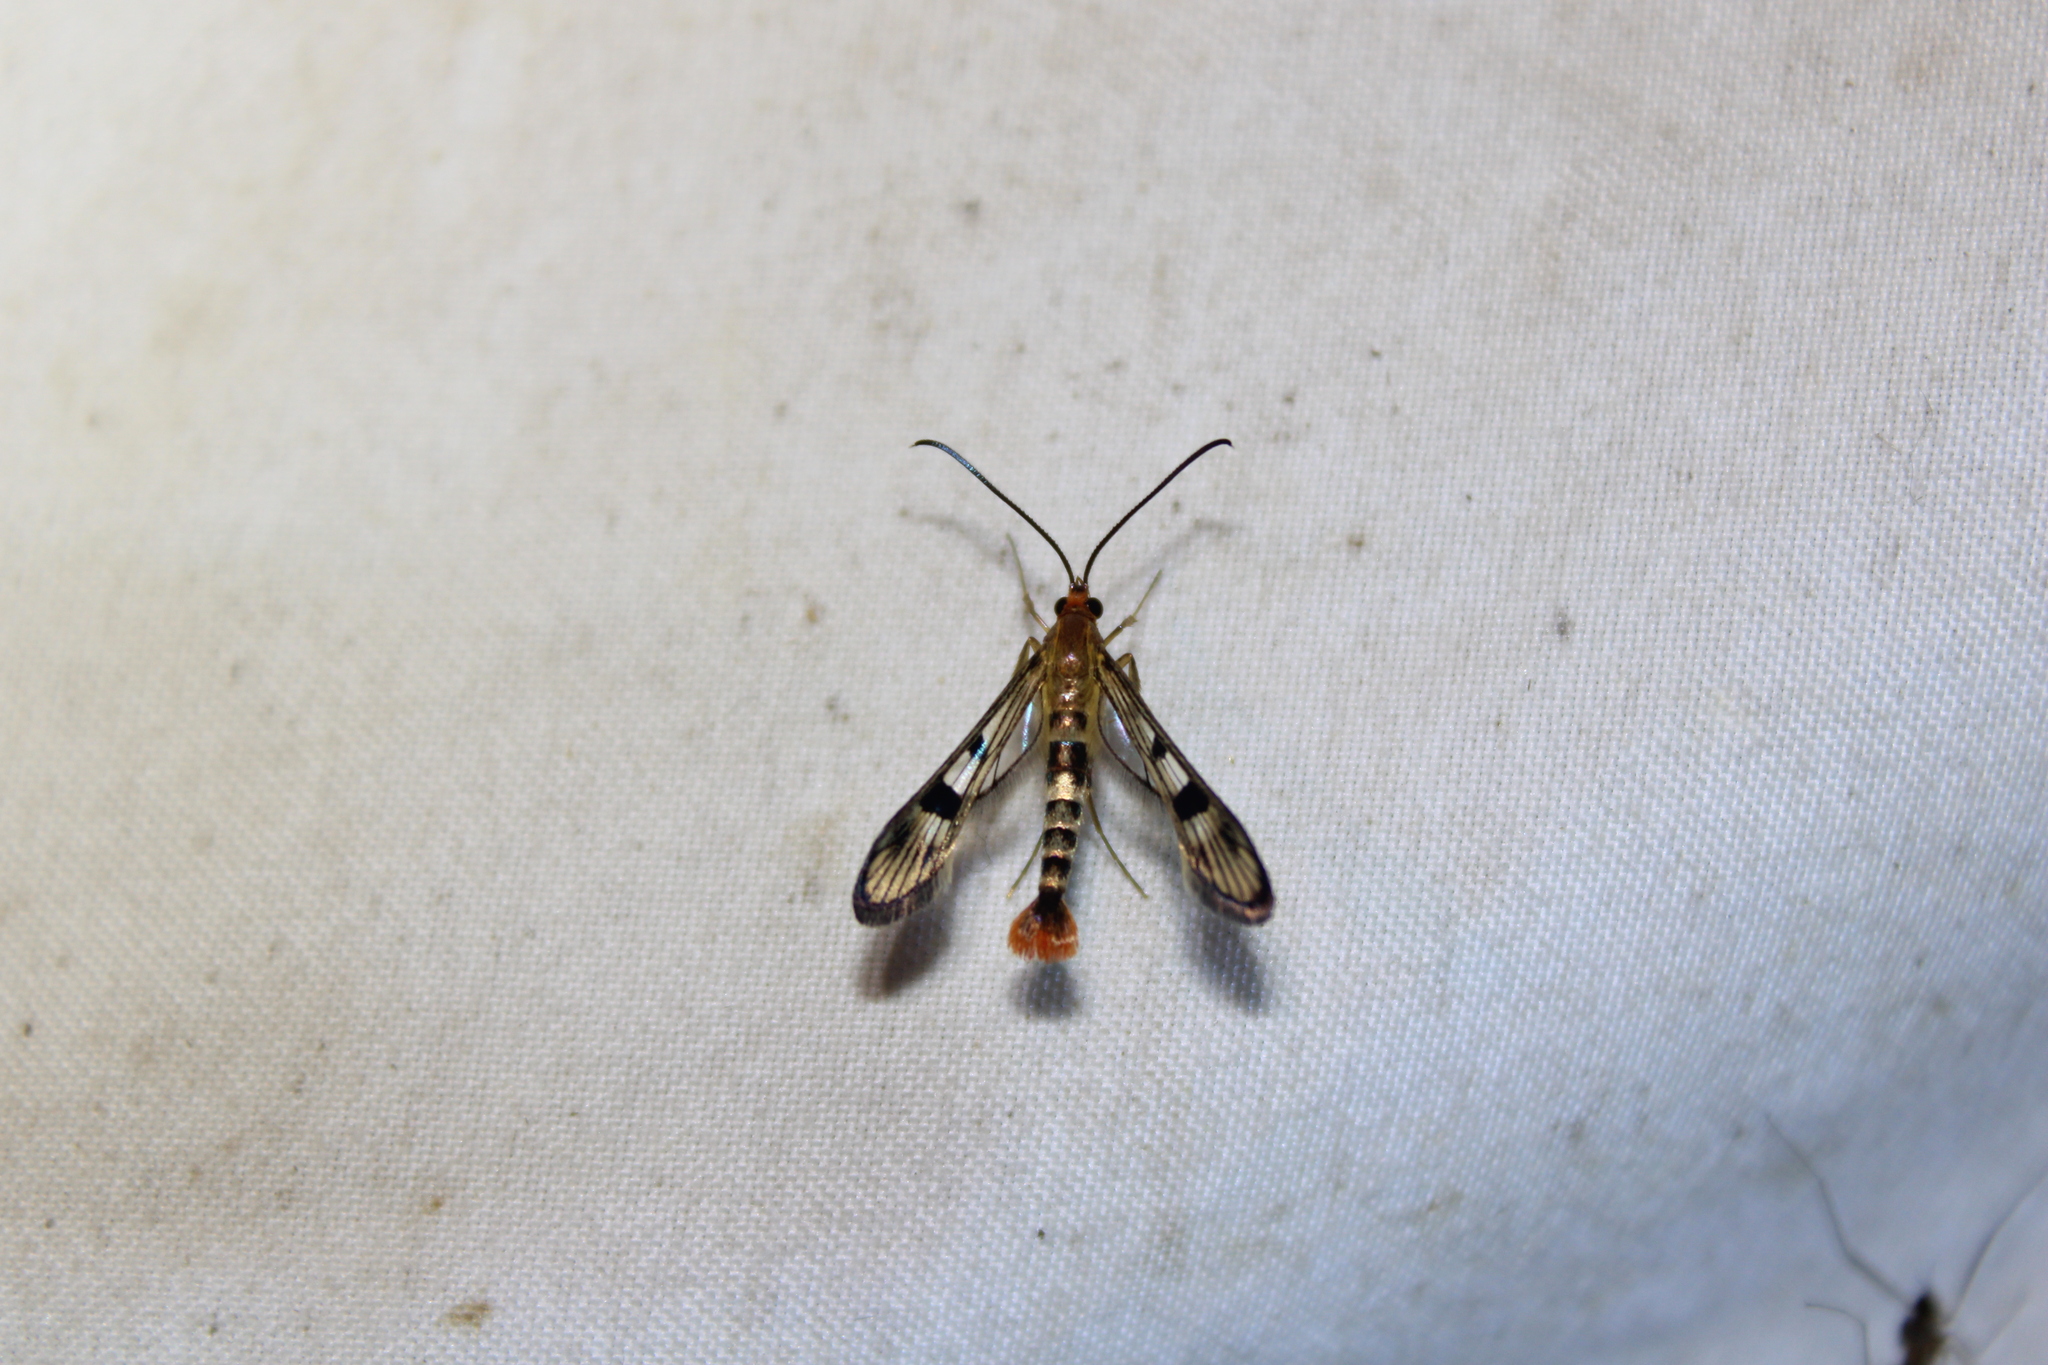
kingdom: Animalia
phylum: Arthropoda
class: Insecta
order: Lepidoptera
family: Sesiidae
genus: Synanthedon
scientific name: Synanthedon acerni
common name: Maple callus borer moth
